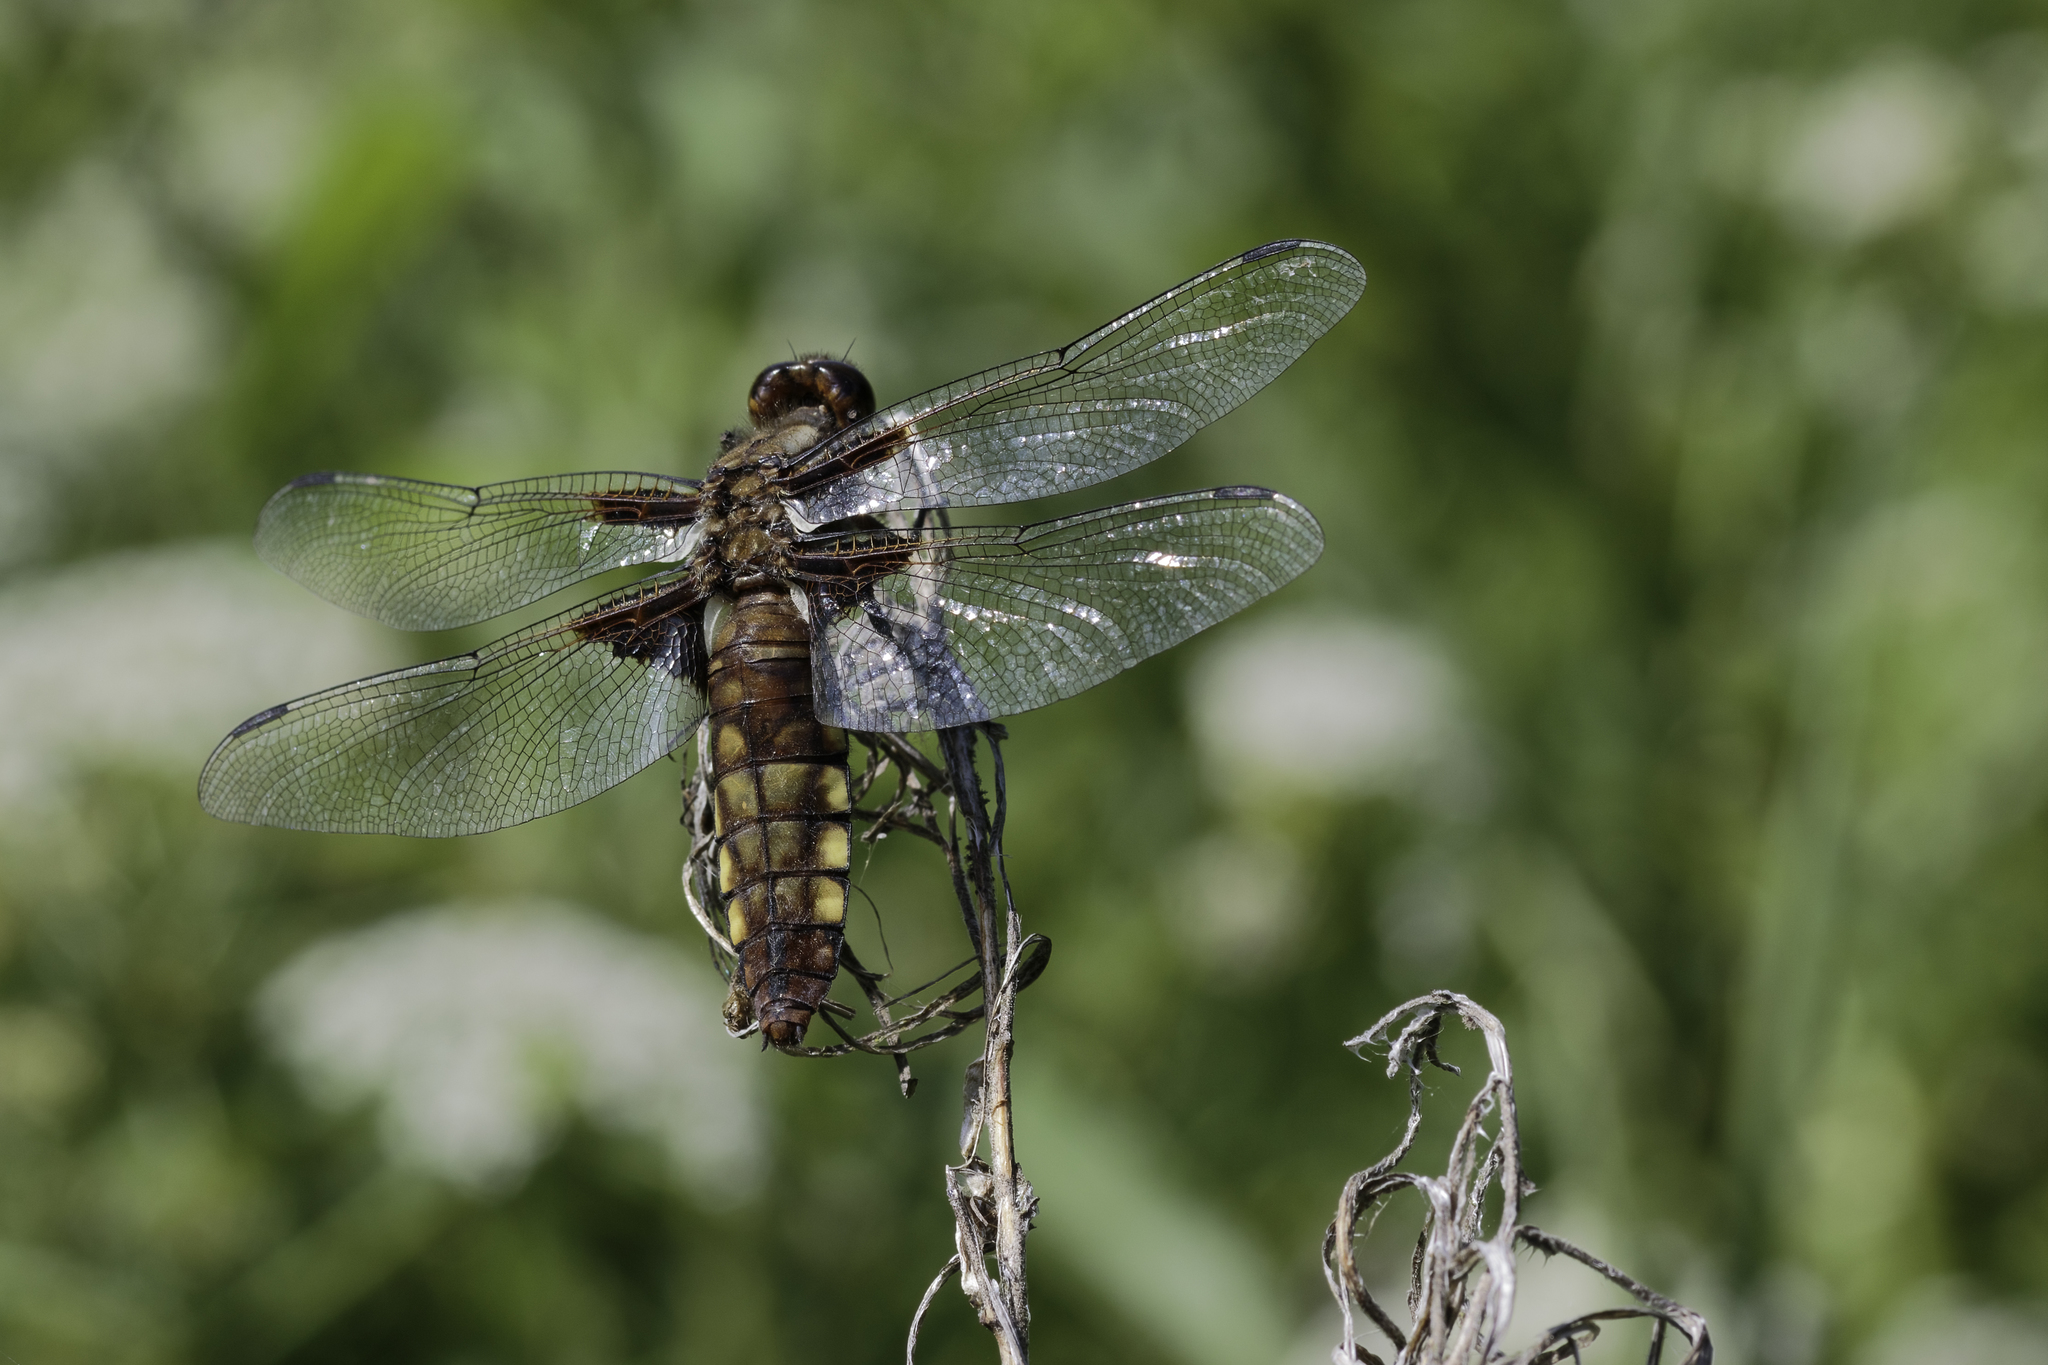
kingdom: Animalia
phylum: Arthropoda
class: Insecta
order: Odonata
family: Libellulidae
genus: Libellula
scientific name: Libellula depressa
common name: Broad-bodied chaser
